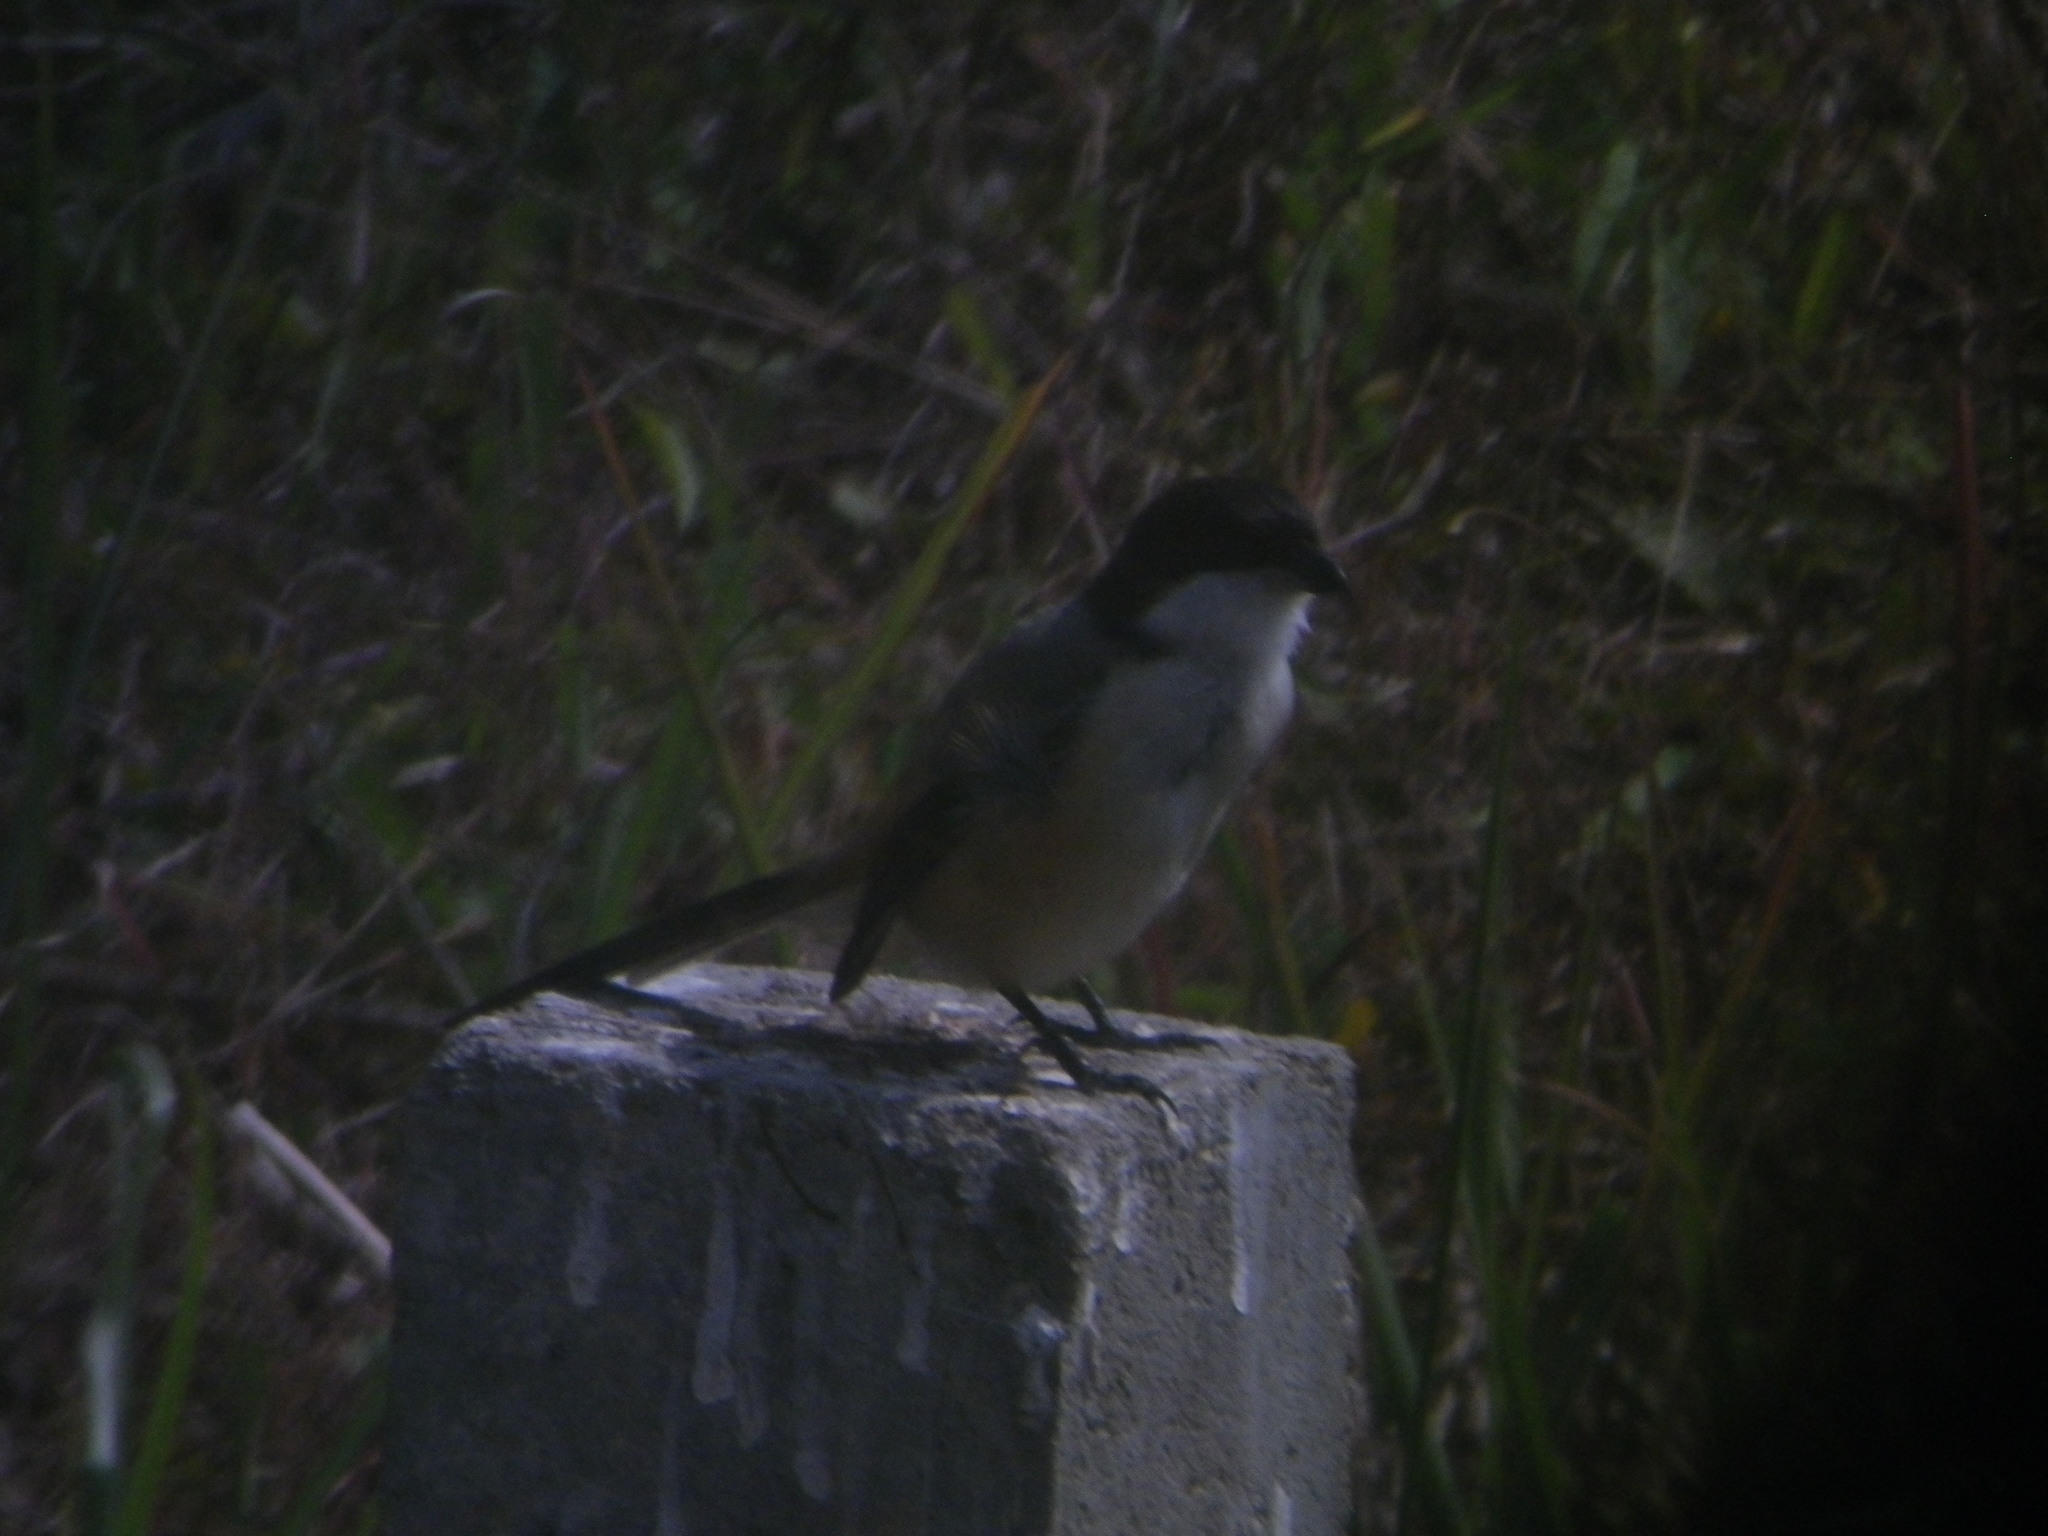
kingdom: Animalia
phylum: Chordata
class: Aves
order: Passeriformes
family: Laniidae
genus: Lanius
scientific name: Lanius schach
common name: Long-tailed shrike
